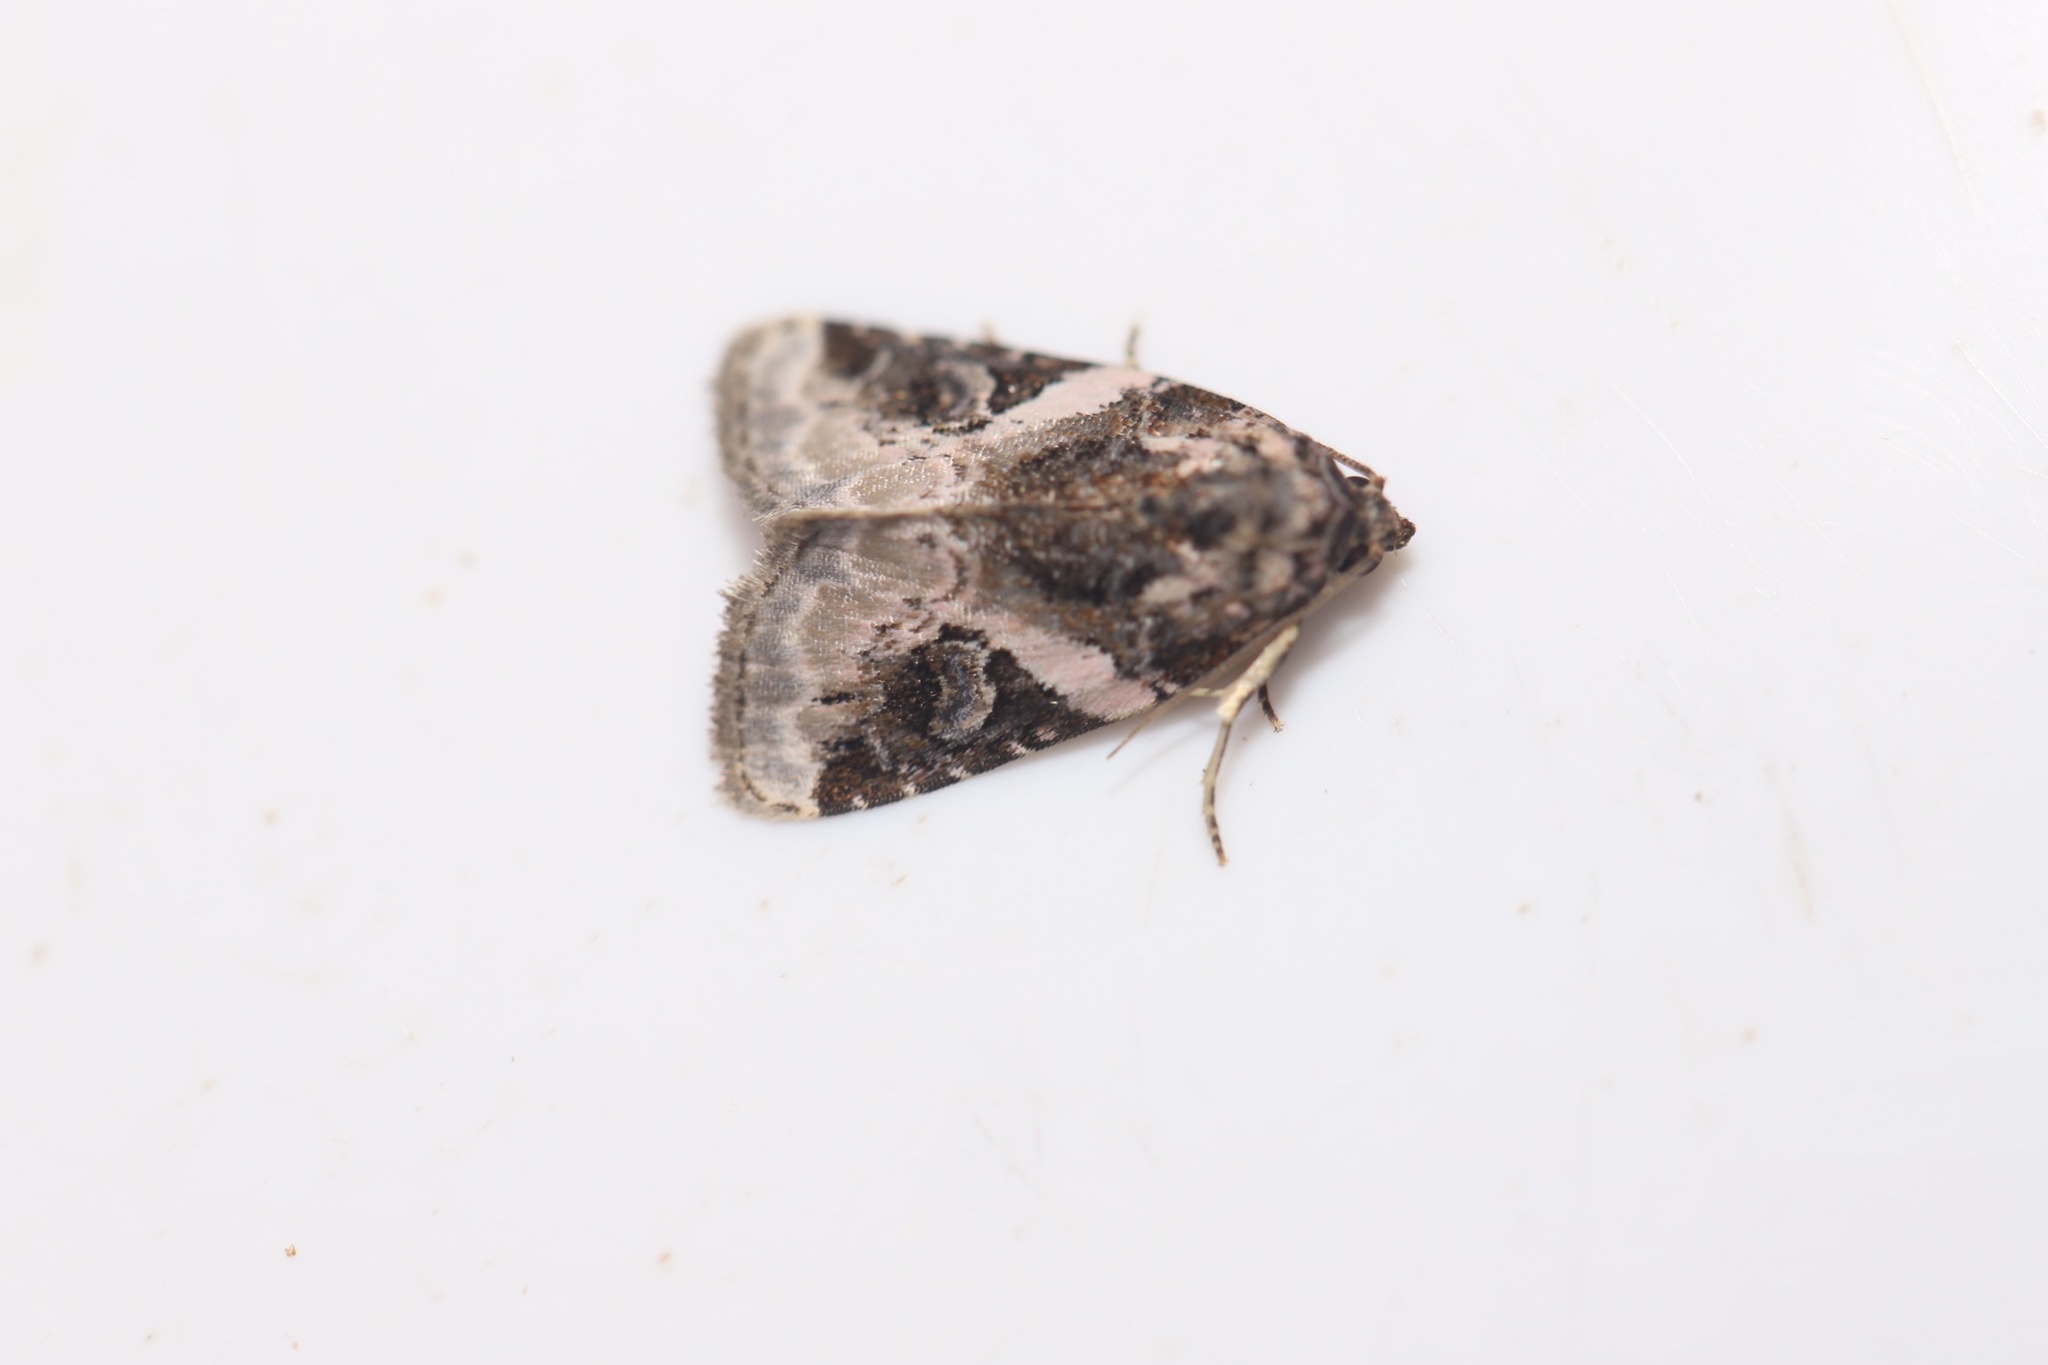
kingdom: Animalia
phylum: Arthropoda
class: Insecta
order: Lepidoptera
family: Noctuidae
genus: Pseudeustrotia
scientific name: Pseudeustrotia carneola
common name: Pink-barred lithacodia moth
